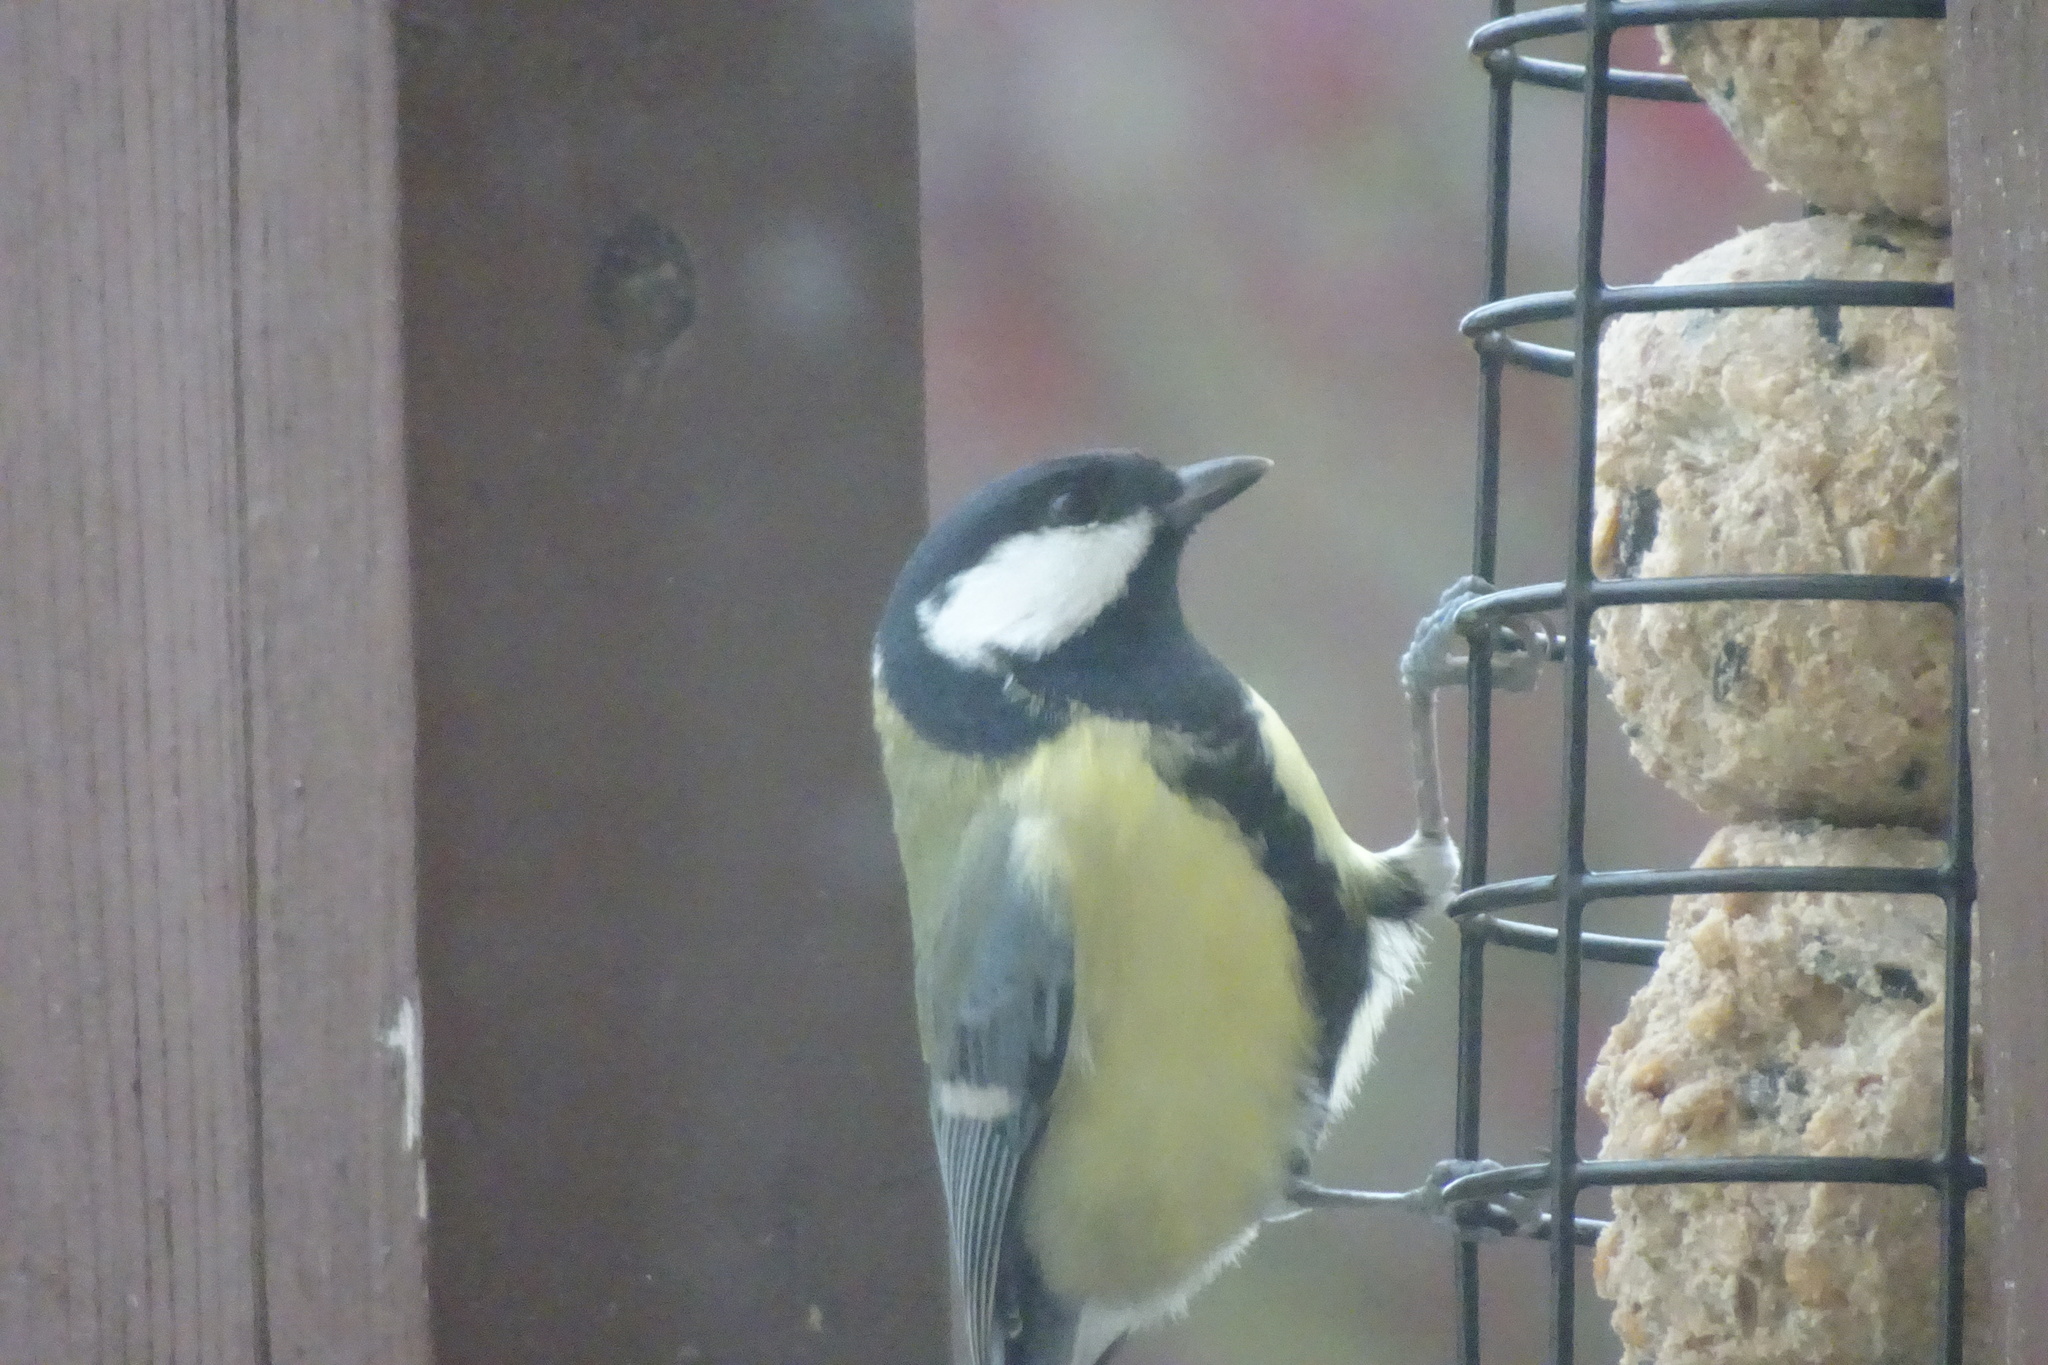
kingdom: Animalia
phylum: Chordata
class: Aves
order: Passeriformes
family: Paridae
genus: Parus
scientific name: Parus major
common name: Great tit
